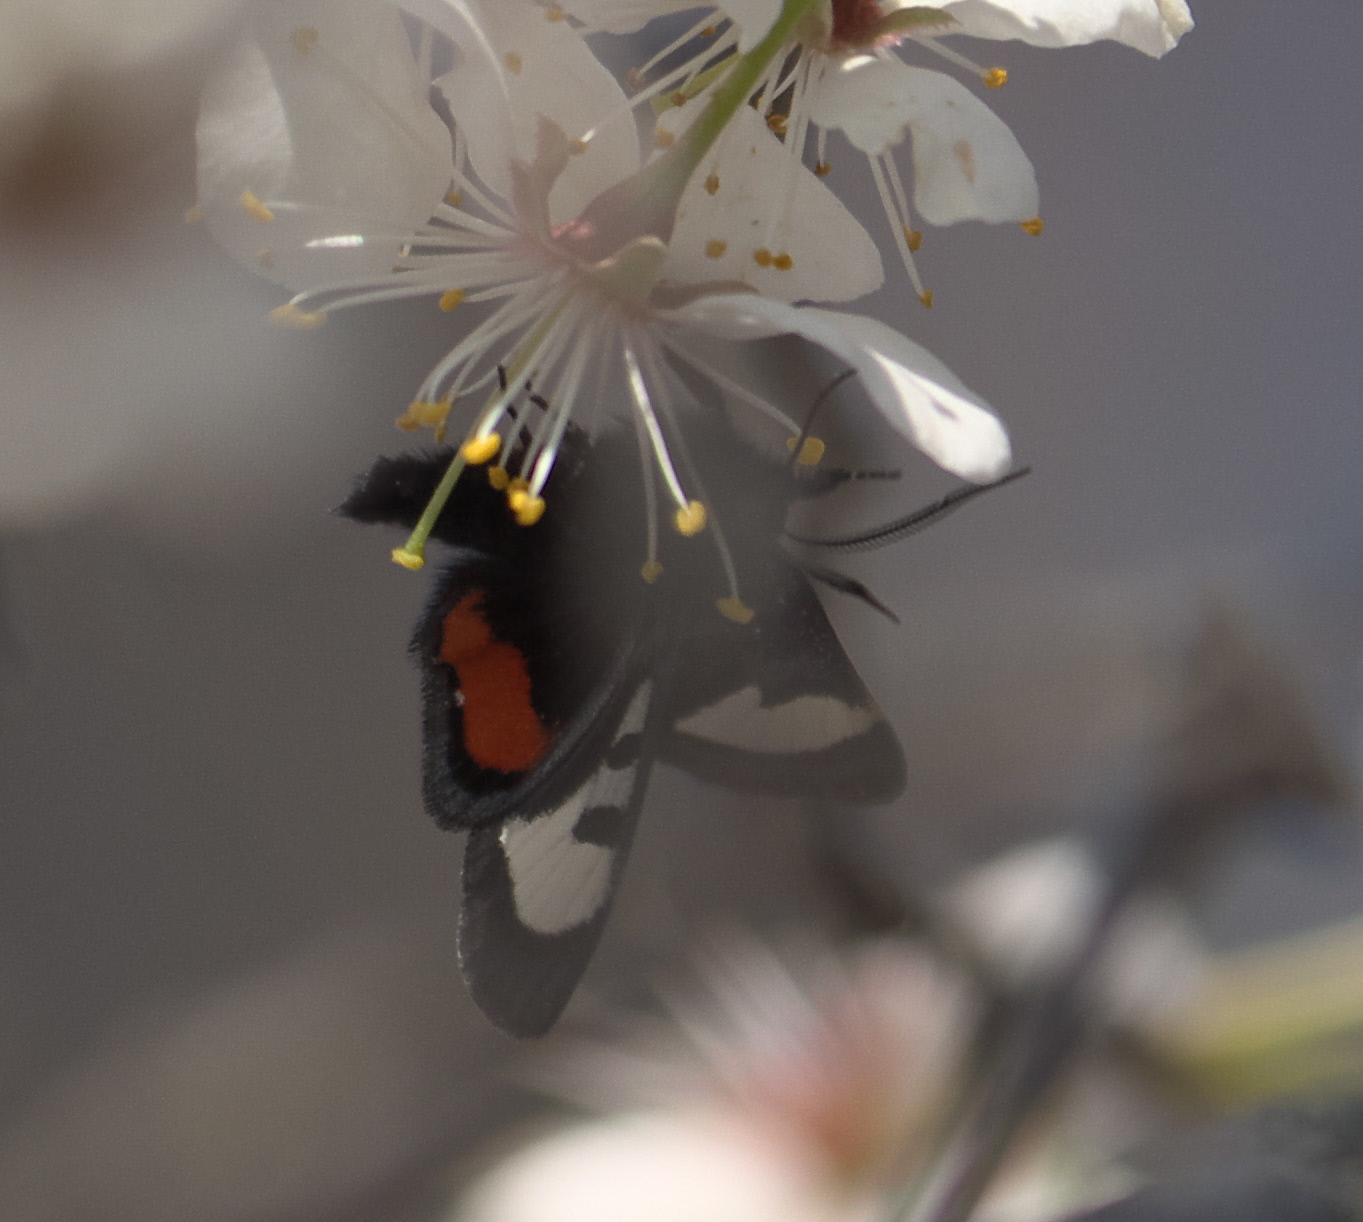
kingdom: Animalia
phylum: Arthropoda
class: Insecta
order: Lepidoptera
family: Noctuidae
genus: Psychomorpha
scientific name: Psychomorpha epimenis
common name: Grapevine epimenis moth
